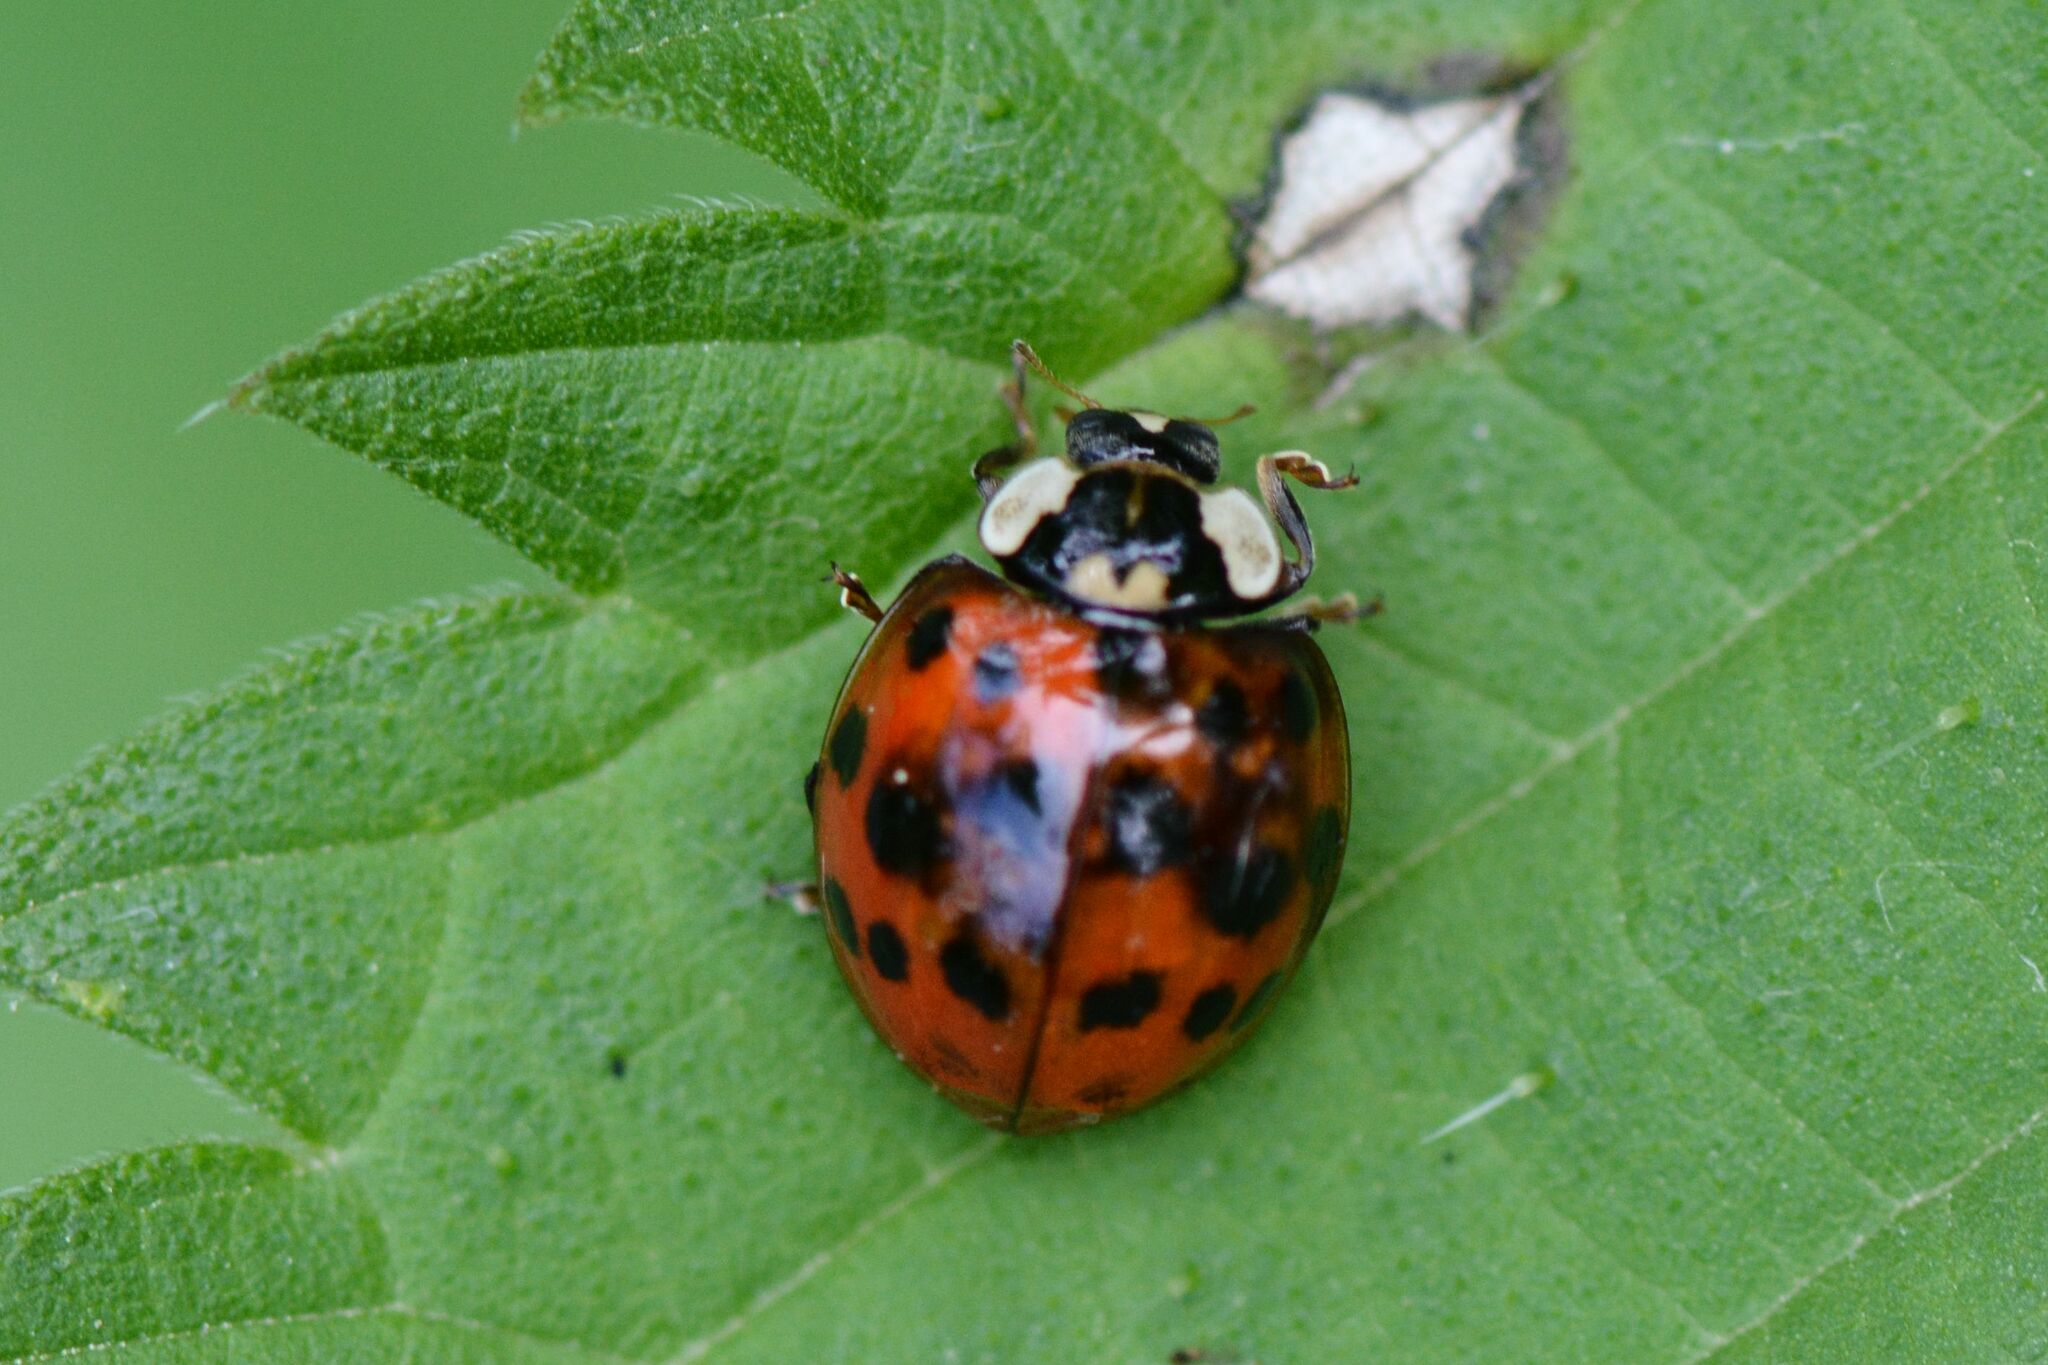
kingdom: Animalia
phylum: Arthropoda
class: Insecta
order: Coleoptera
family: Coccinellidae
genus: Harmonia
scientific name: Harmonia axyridis
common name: Harlequin ladybird
